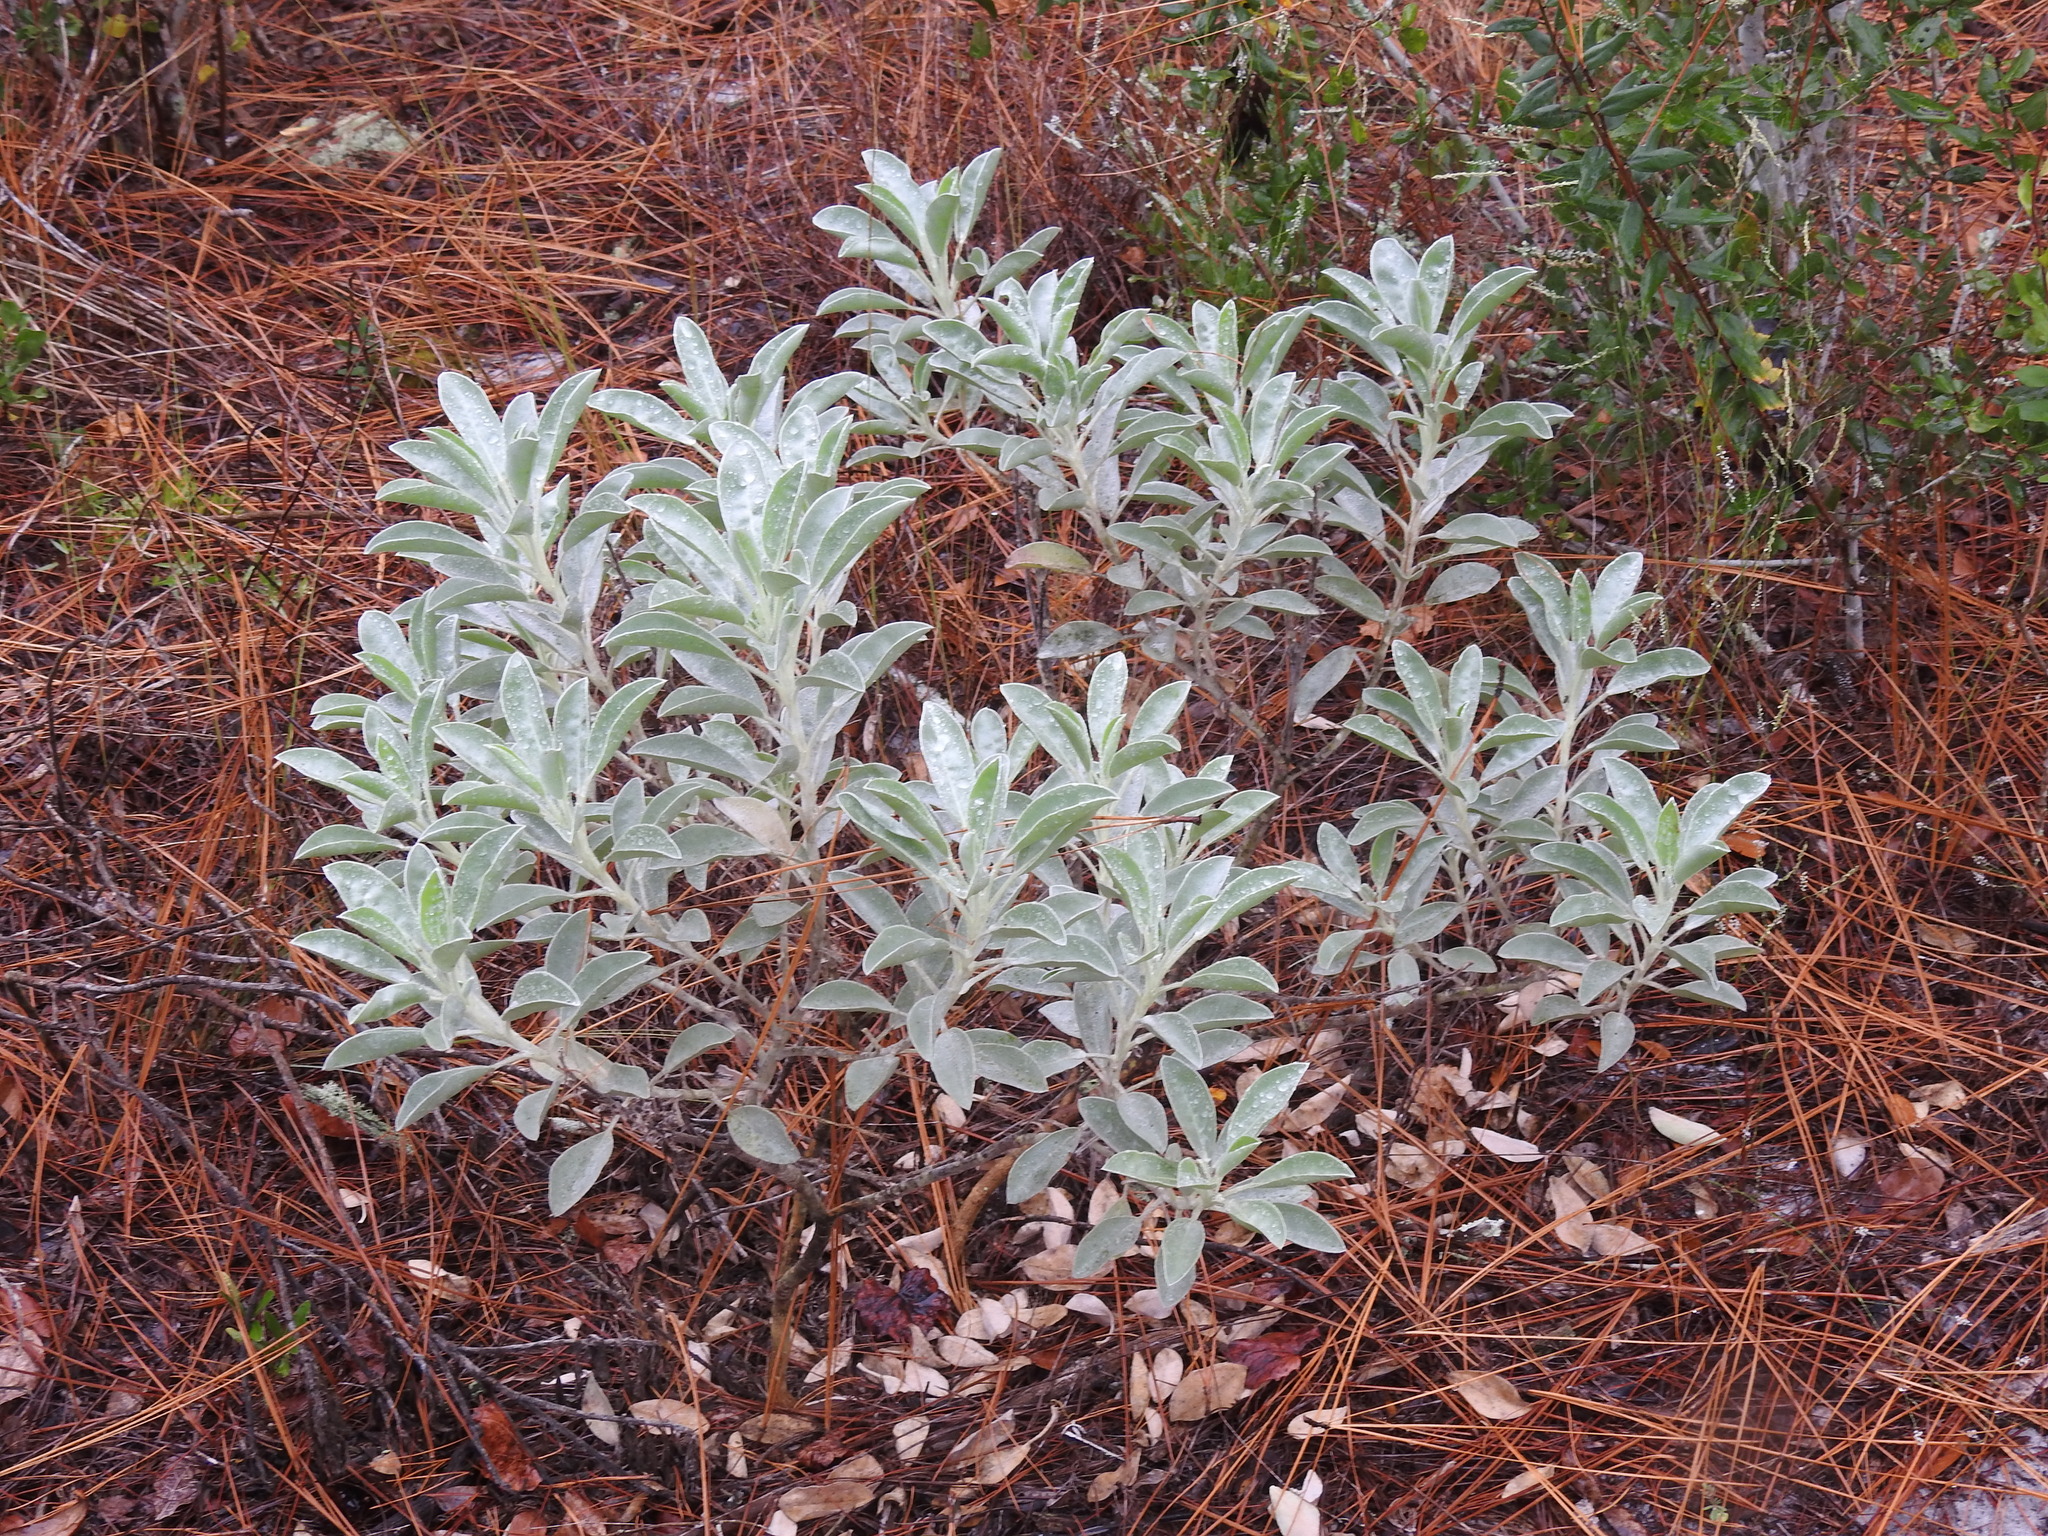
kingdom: Plantae
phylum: Tracheophyta
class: Magnoliopsida
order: Fabales
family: Fabaceae
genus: Lupinus
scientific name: Lupinus westianus
